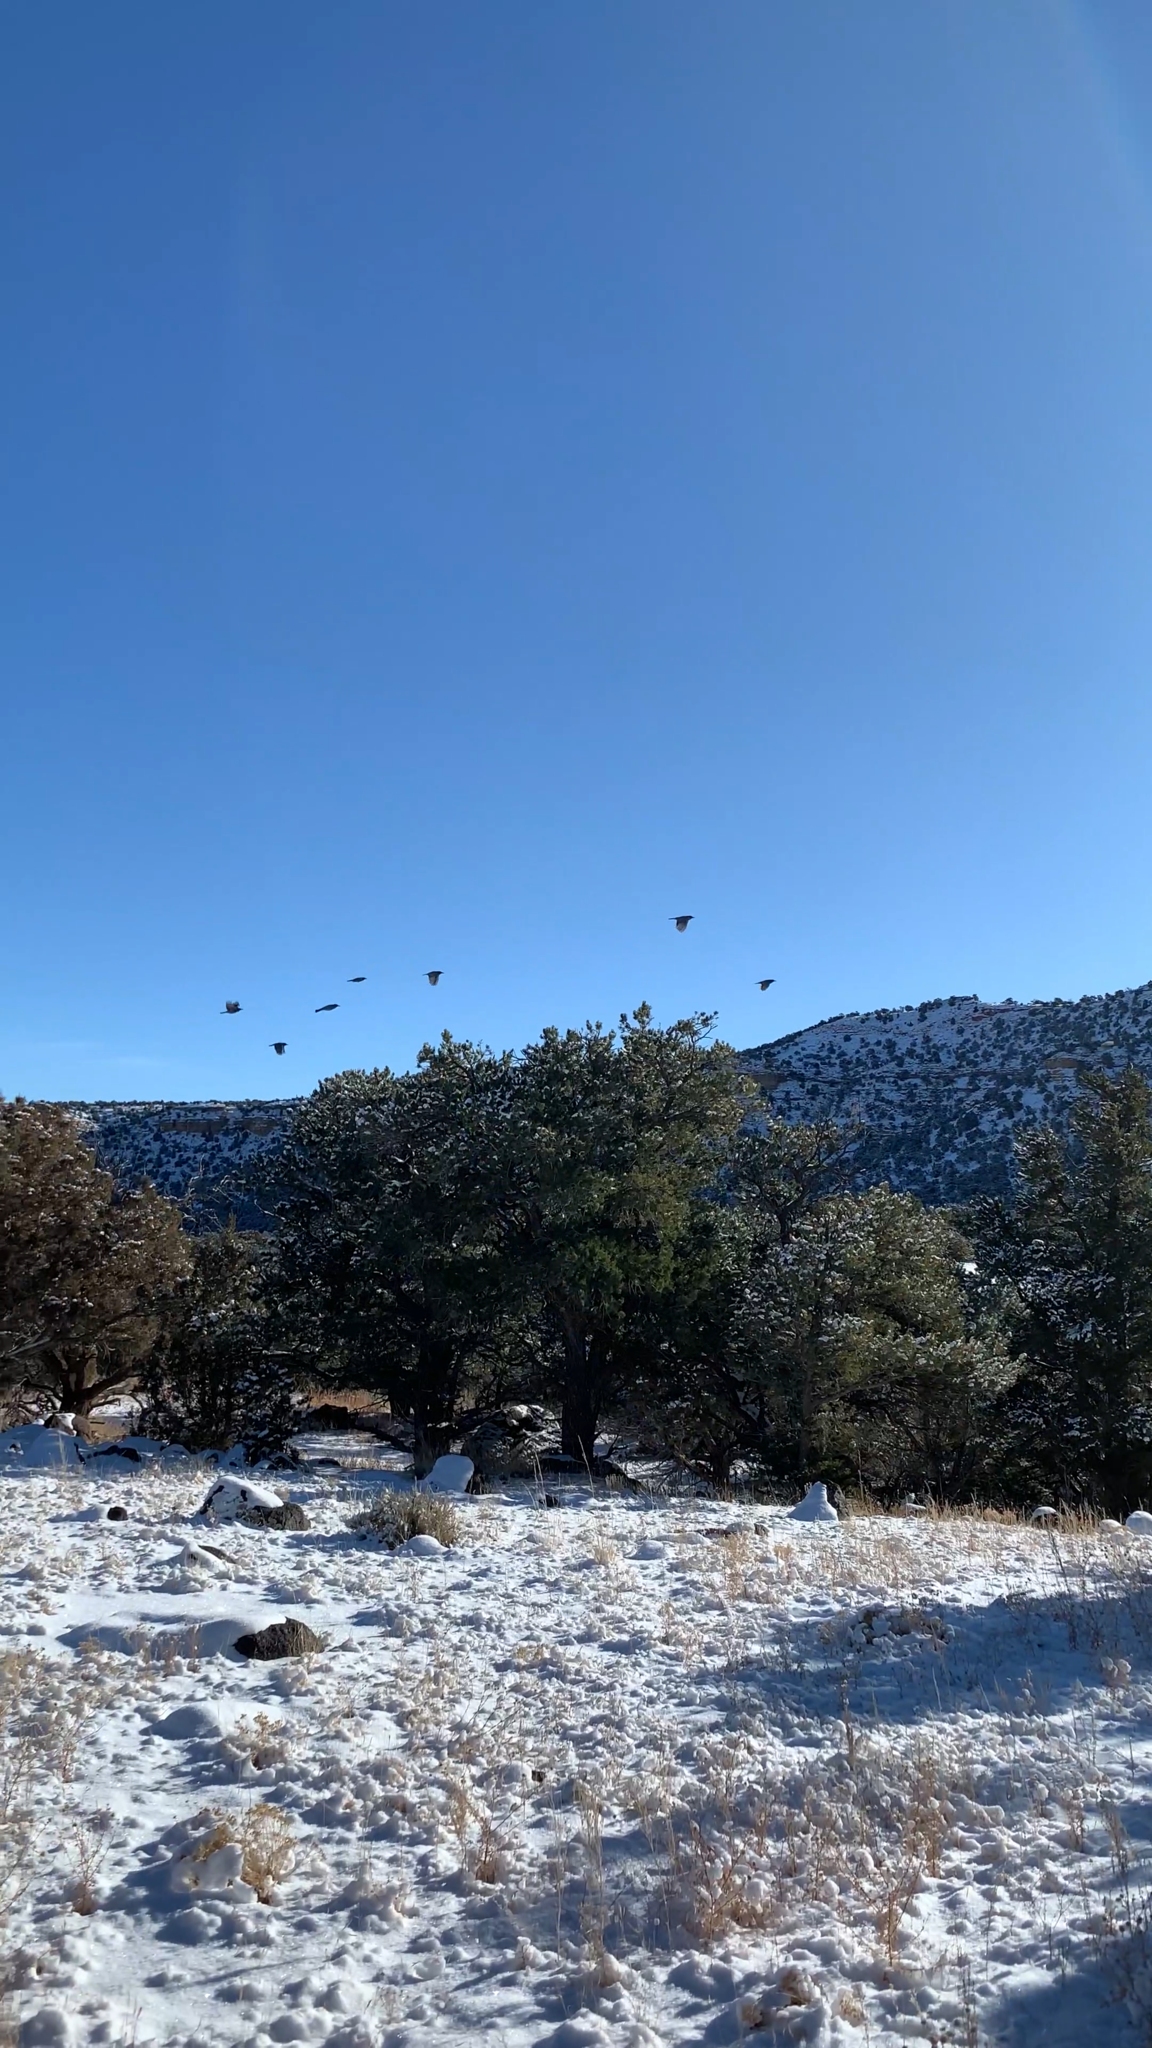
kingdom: Animalia
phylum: Chordata
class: Aves
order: Passeriformes
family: Corvidae
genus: Gymnorhinus
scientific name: Gymnorhinus cyanocephalus
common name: Pinyon jay
